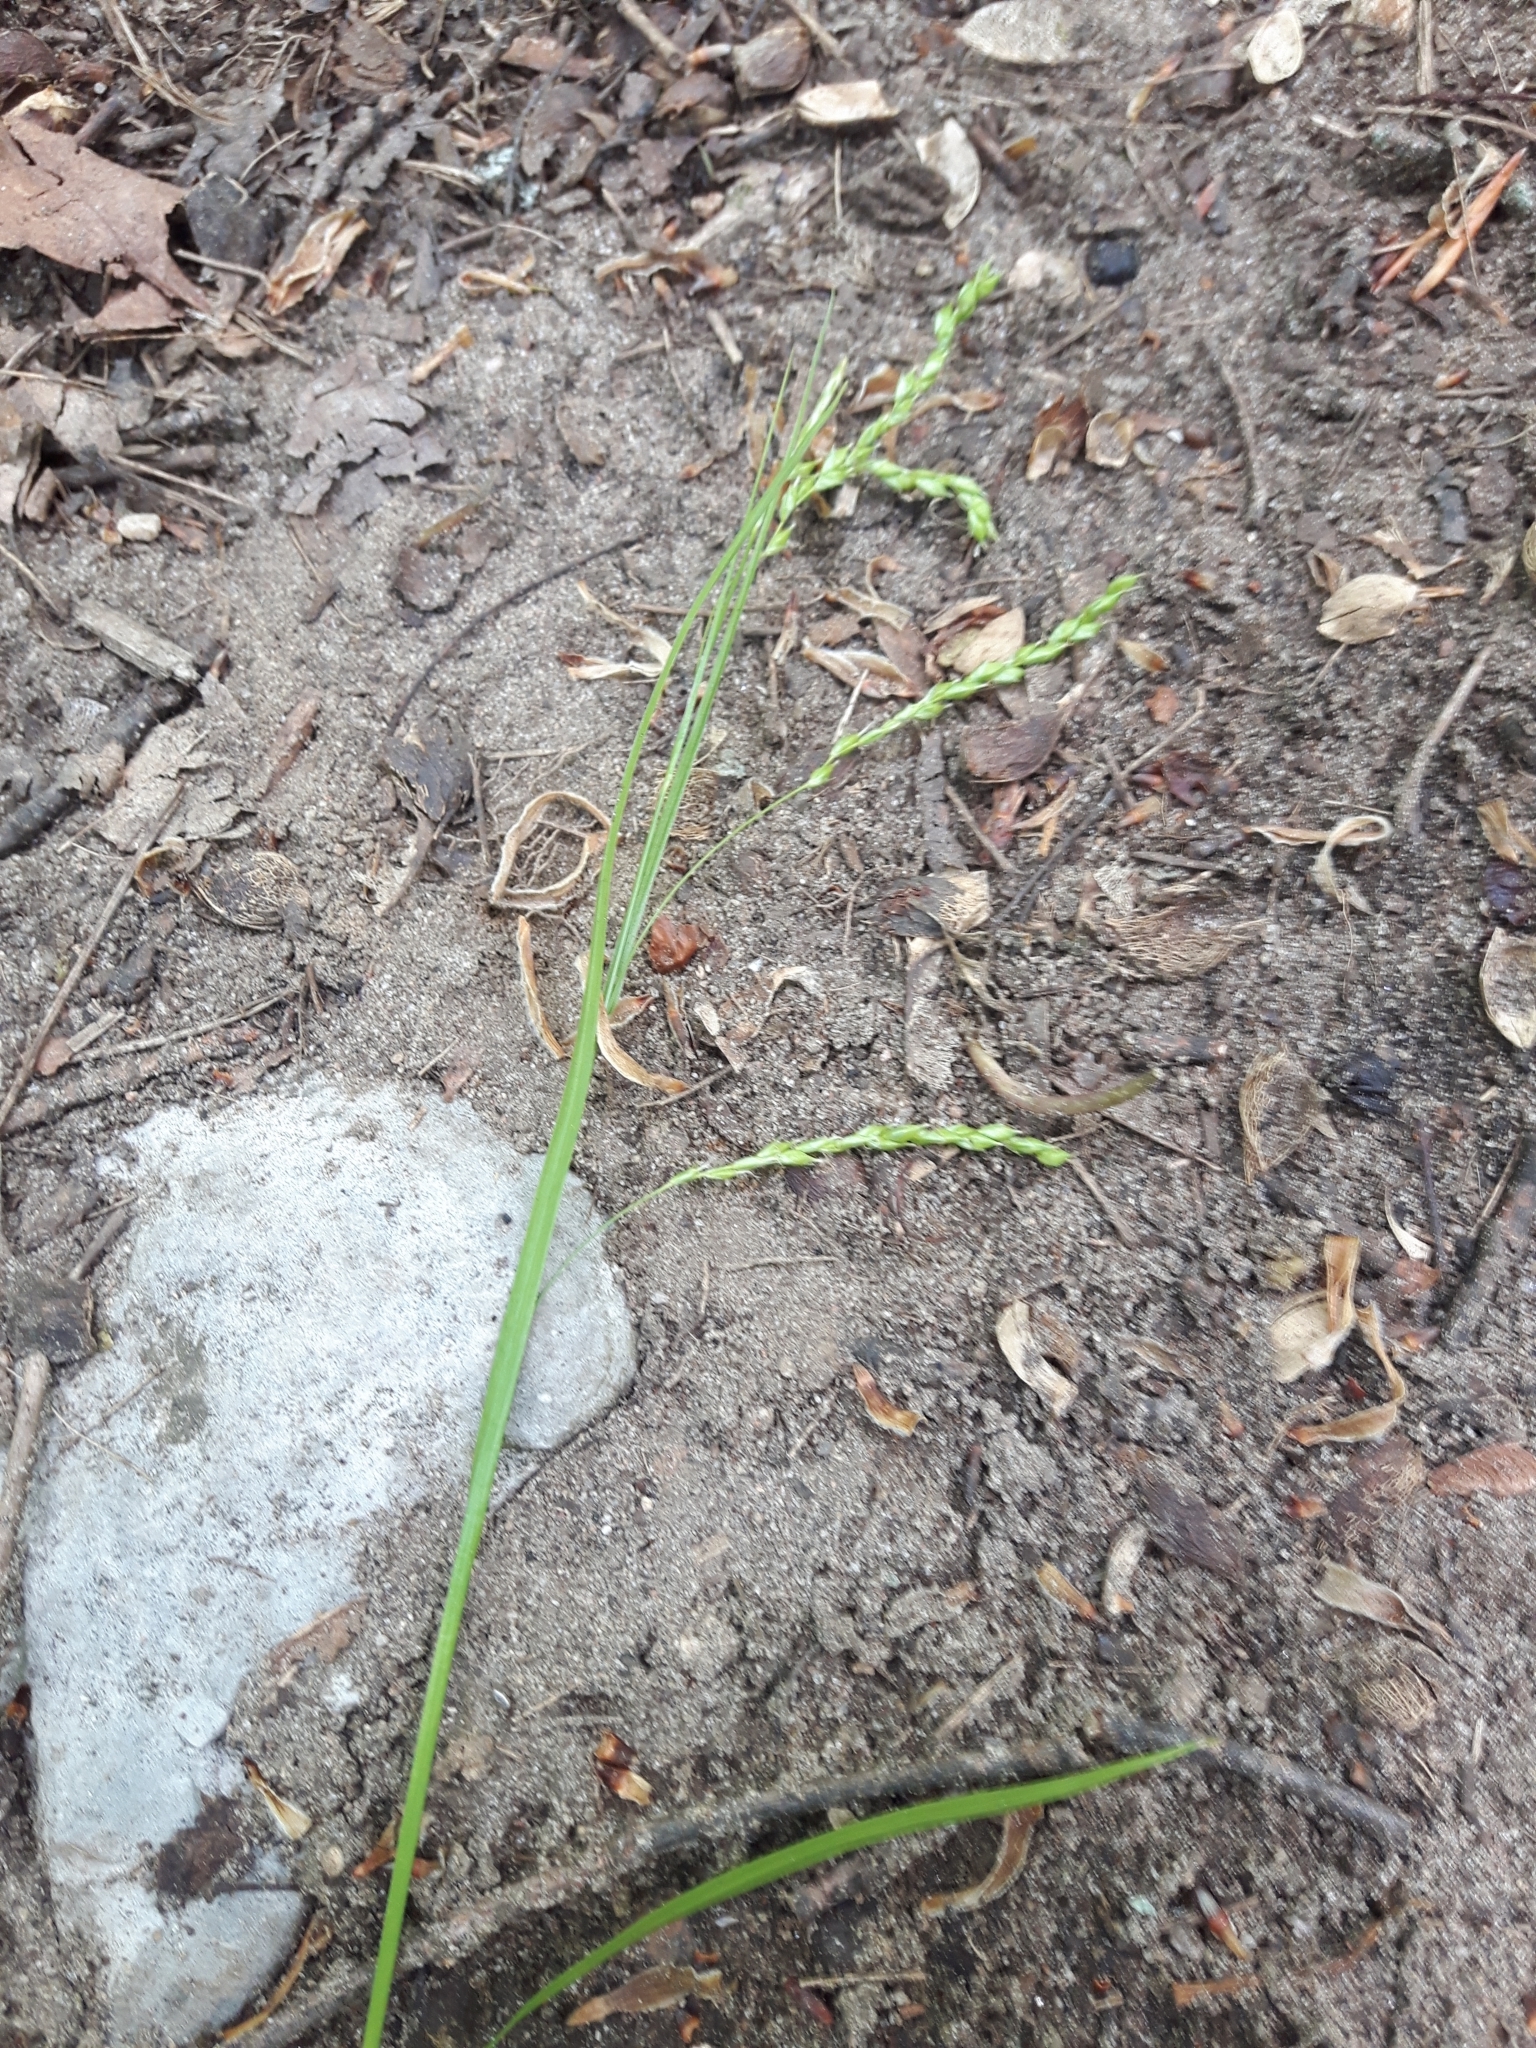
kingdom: Plantae
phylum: Tracheophyta
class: Liliopsida
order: Poales
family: Cyperaceae
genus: Carex
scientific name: Carex arctata
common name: Black sedge
